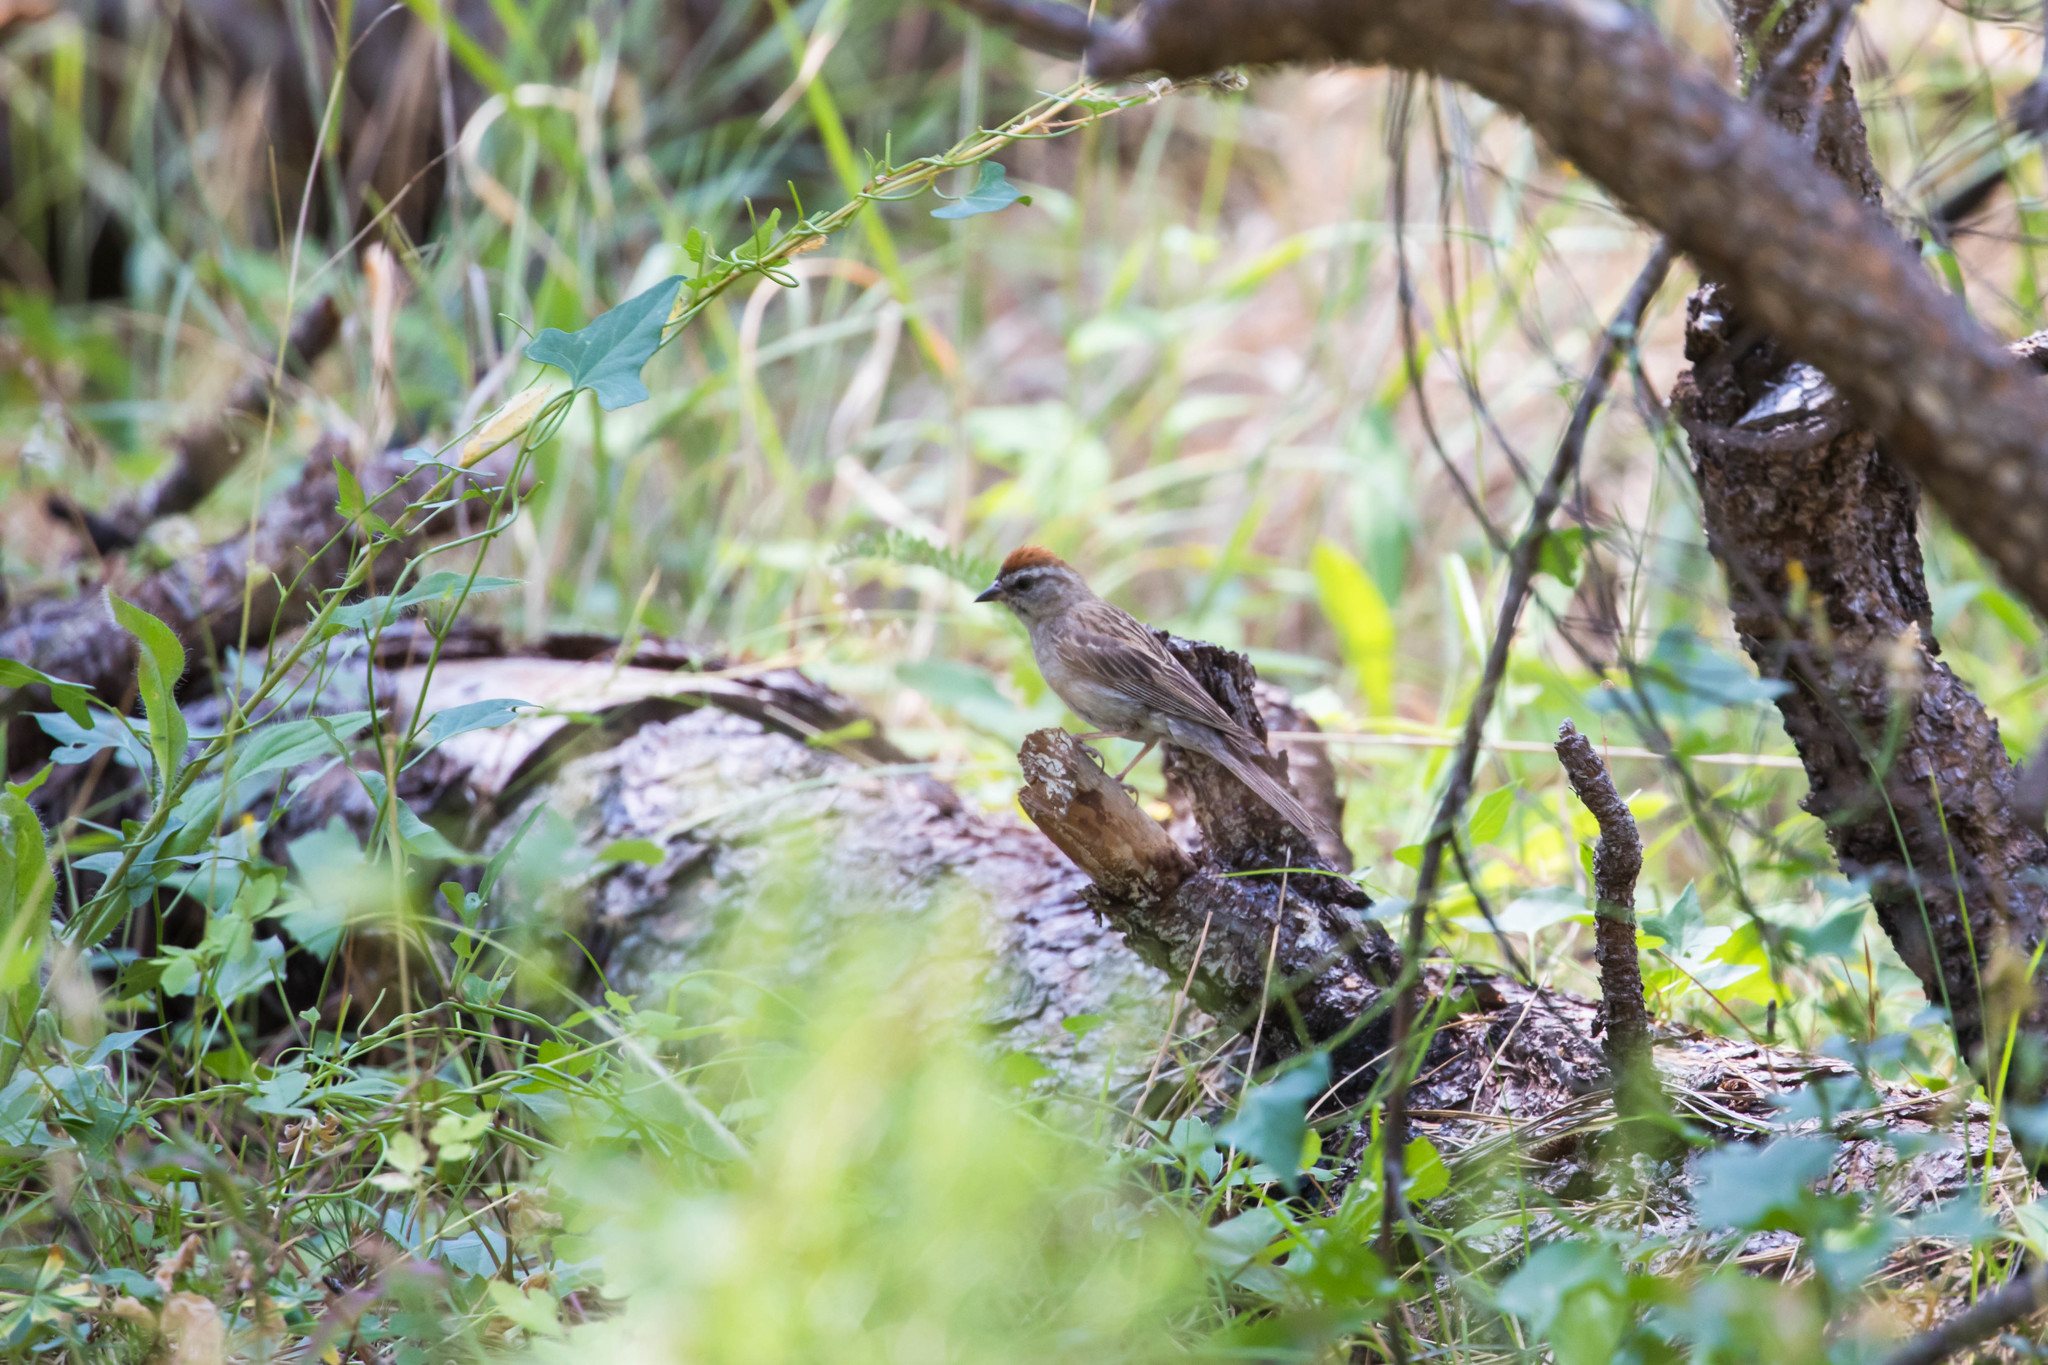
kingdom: Animalia
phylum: Chordata
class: Aves
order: Passeriformes
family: Passerellidae
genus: Spizella
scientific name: Spizella passerina
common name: Chipping sparrow
